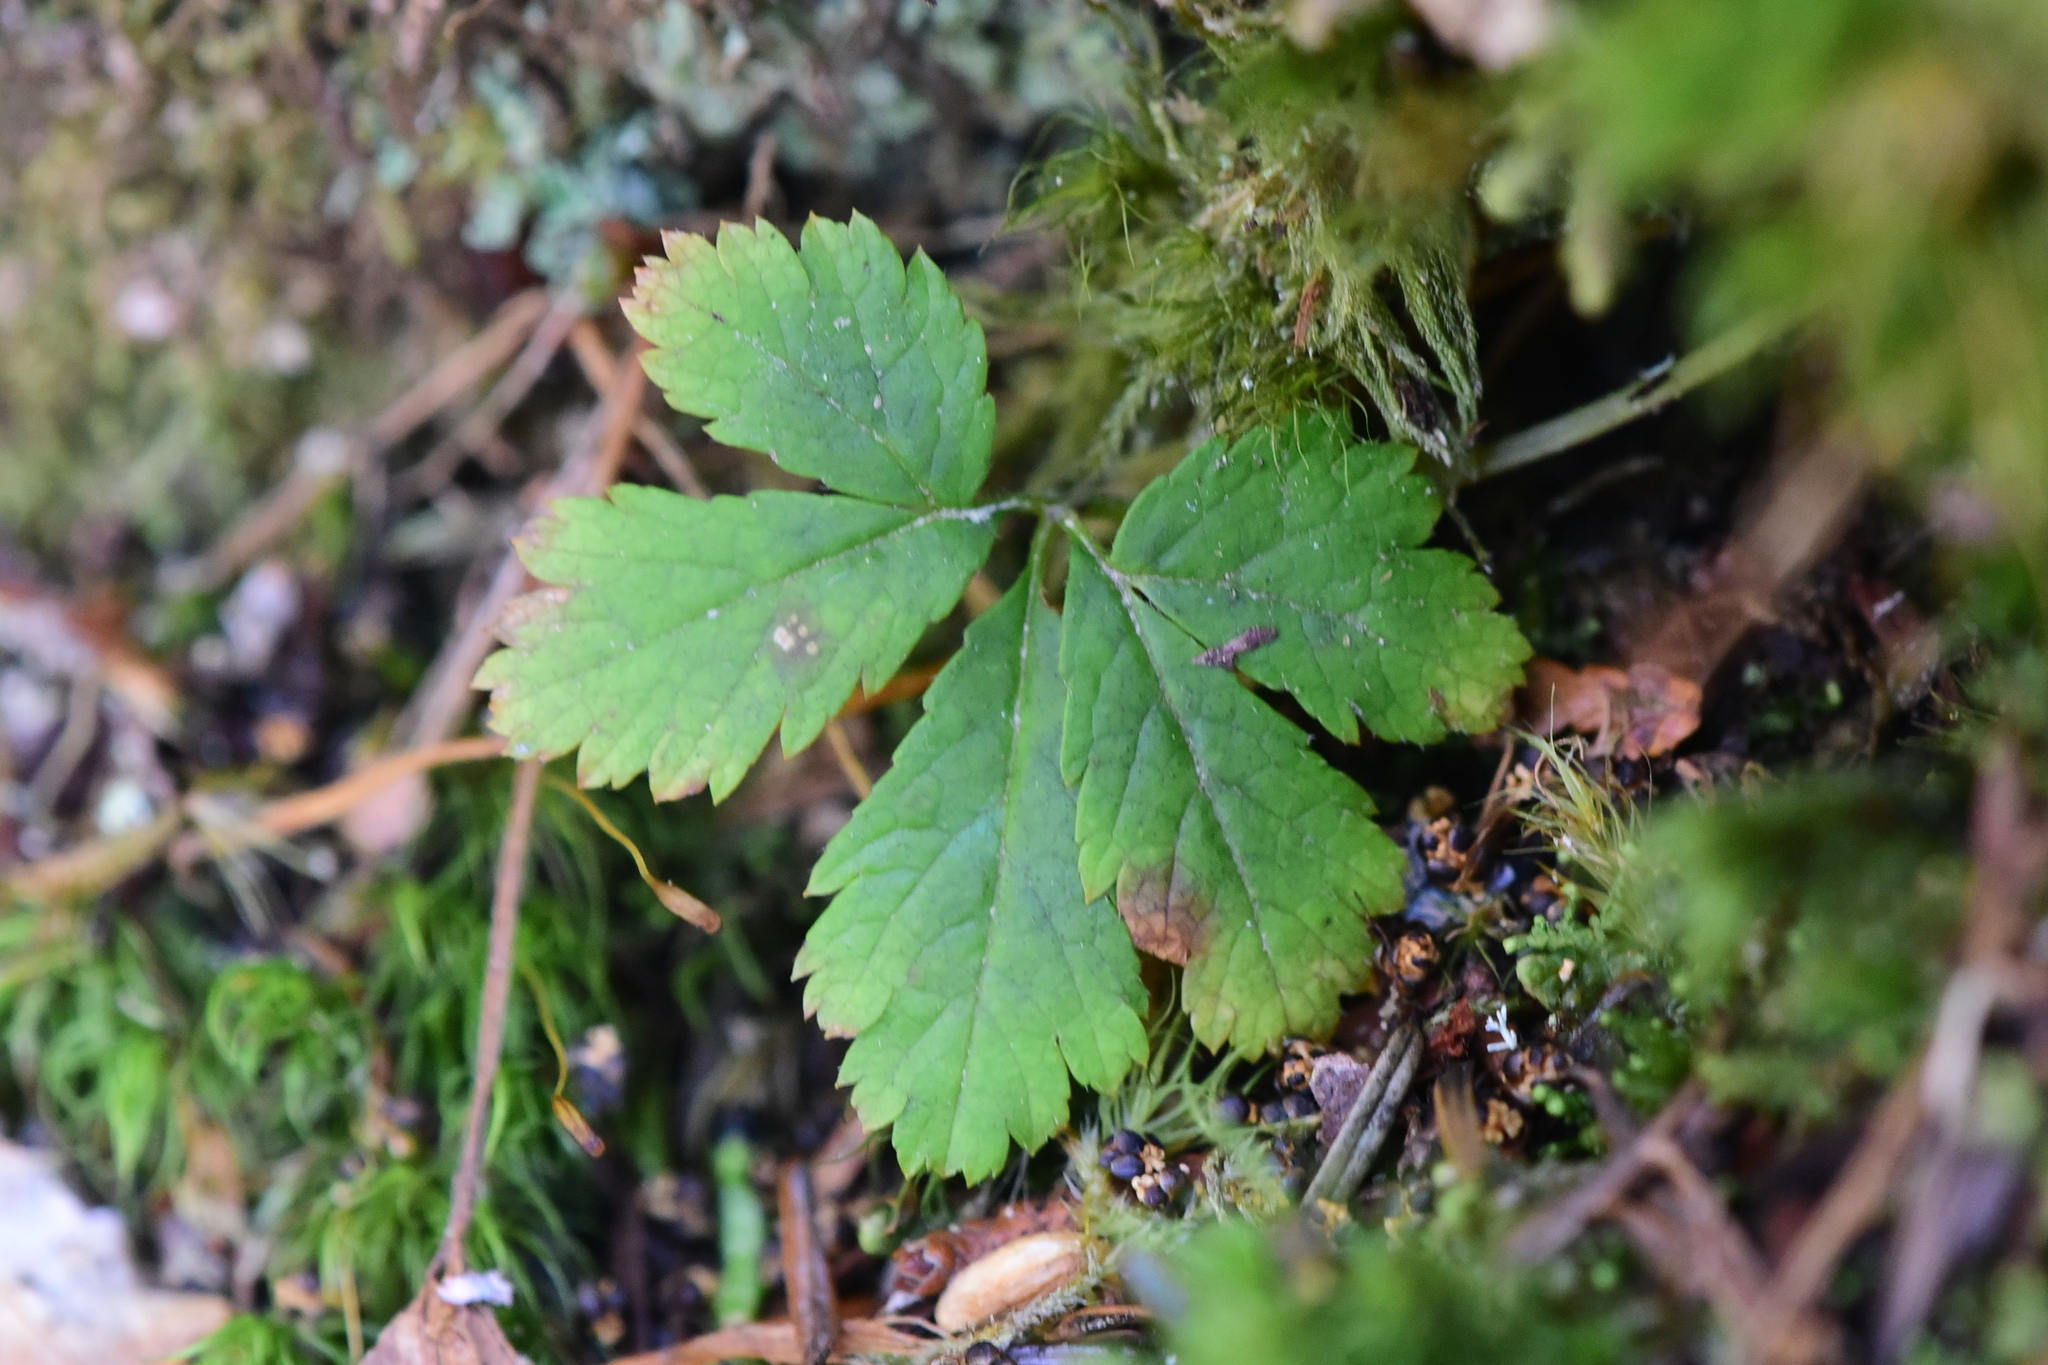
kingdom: Plantae
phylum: Tracheophyta
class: Magnoliopsida
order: Rosales
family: Rosaceae
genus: Rubus
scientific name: Rubus pedatus
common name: Creeping raspberry
